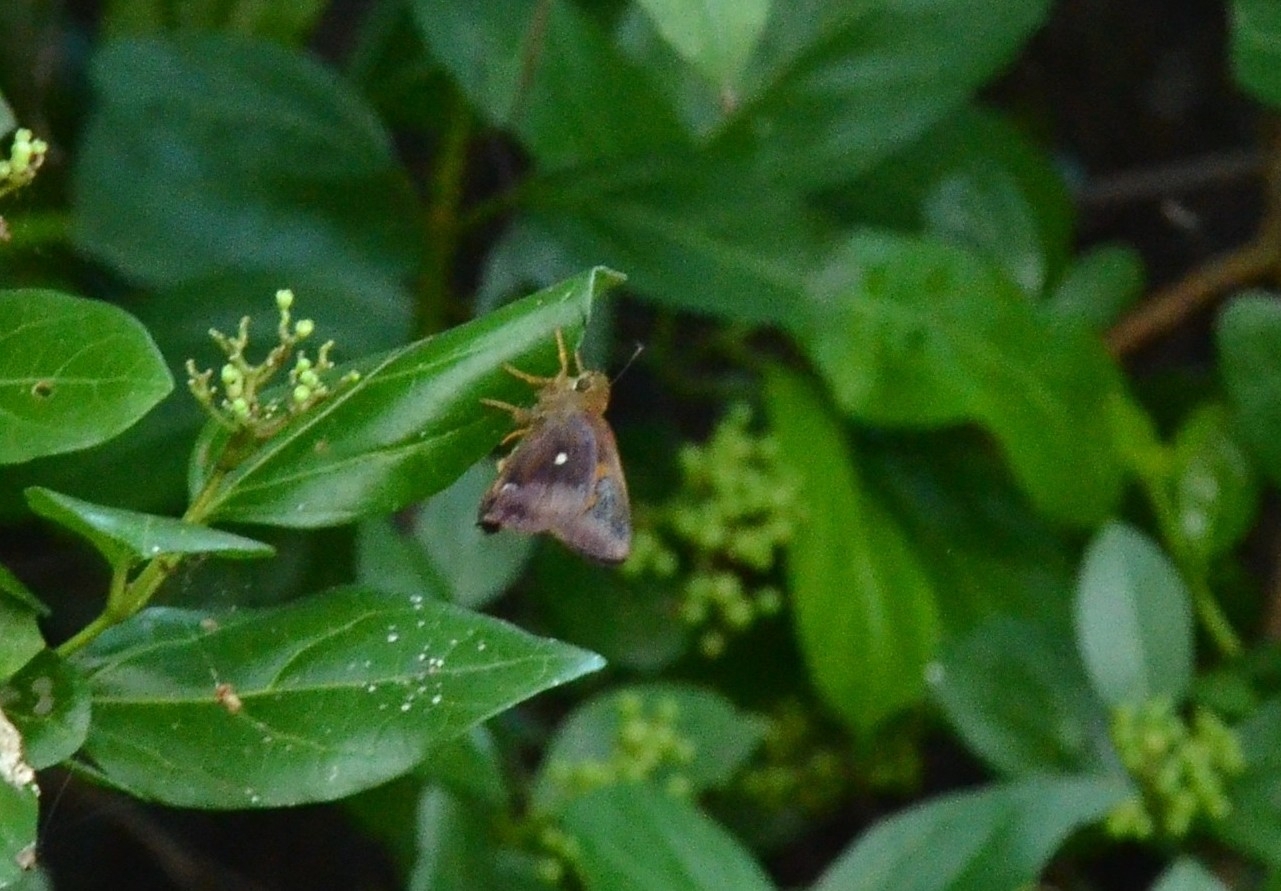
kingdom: Animalia
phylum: Arthropoda
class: Insecta
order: Lepidoptera
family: Hesperiidae
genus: Hasora
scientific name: Hasora badra
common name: Common awl
